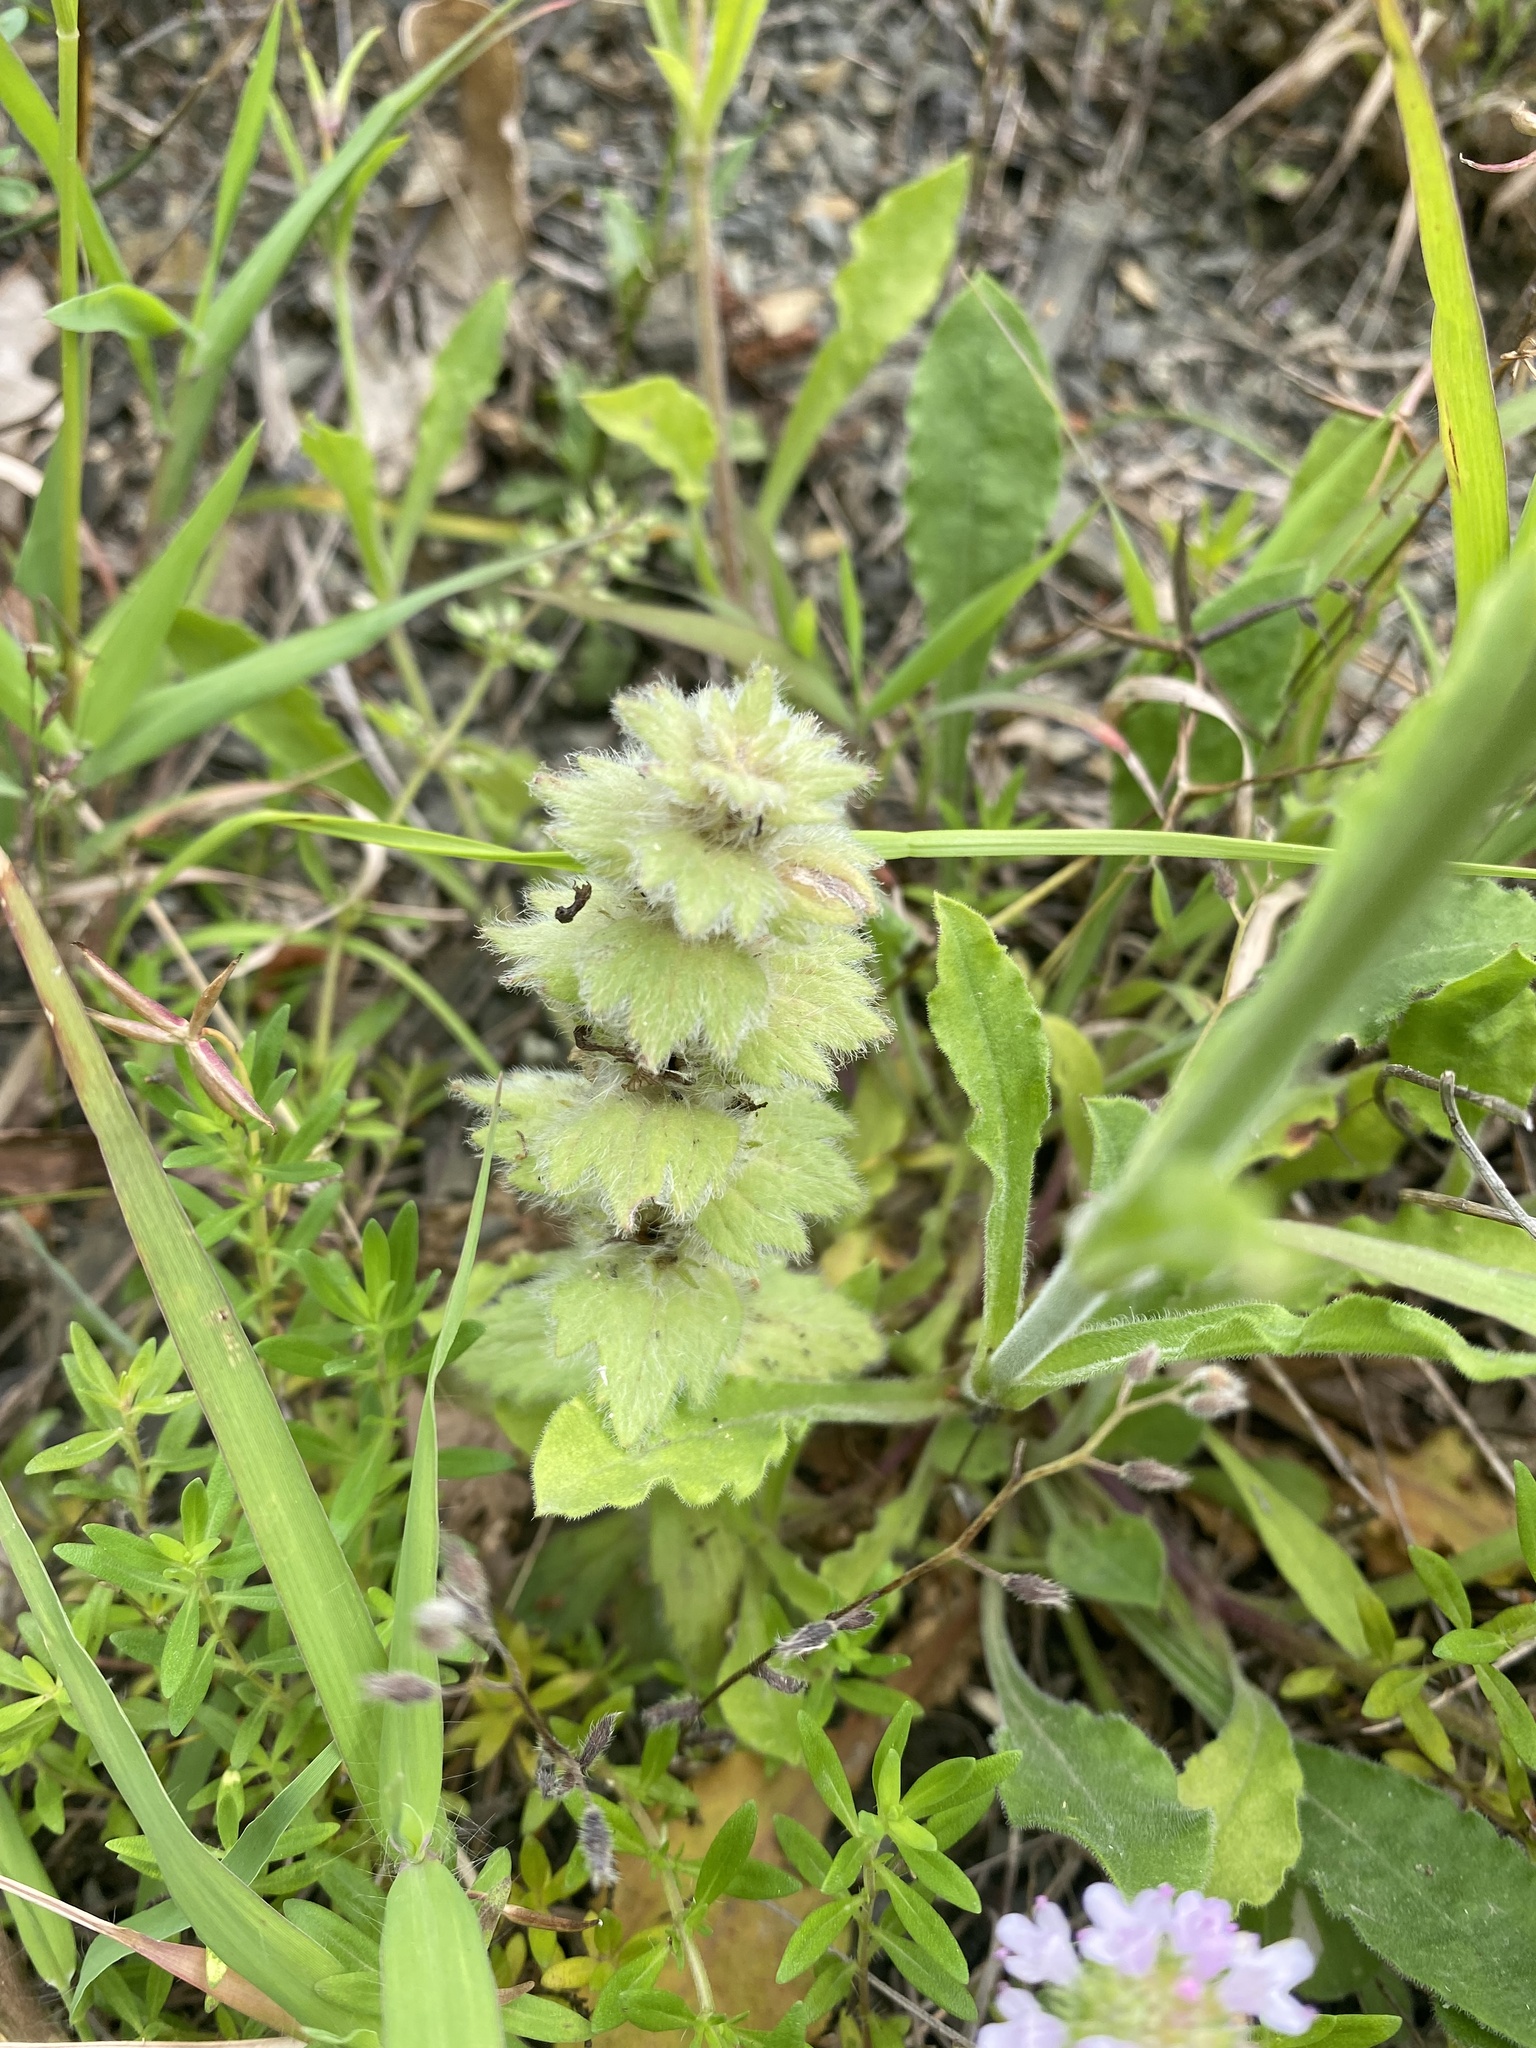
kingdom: Plantae
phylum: Tracheophyta
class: Magnoliopsida
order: Lamiales
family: Lamiaceae
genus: Ajuga
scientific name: Ajuga orientalis
